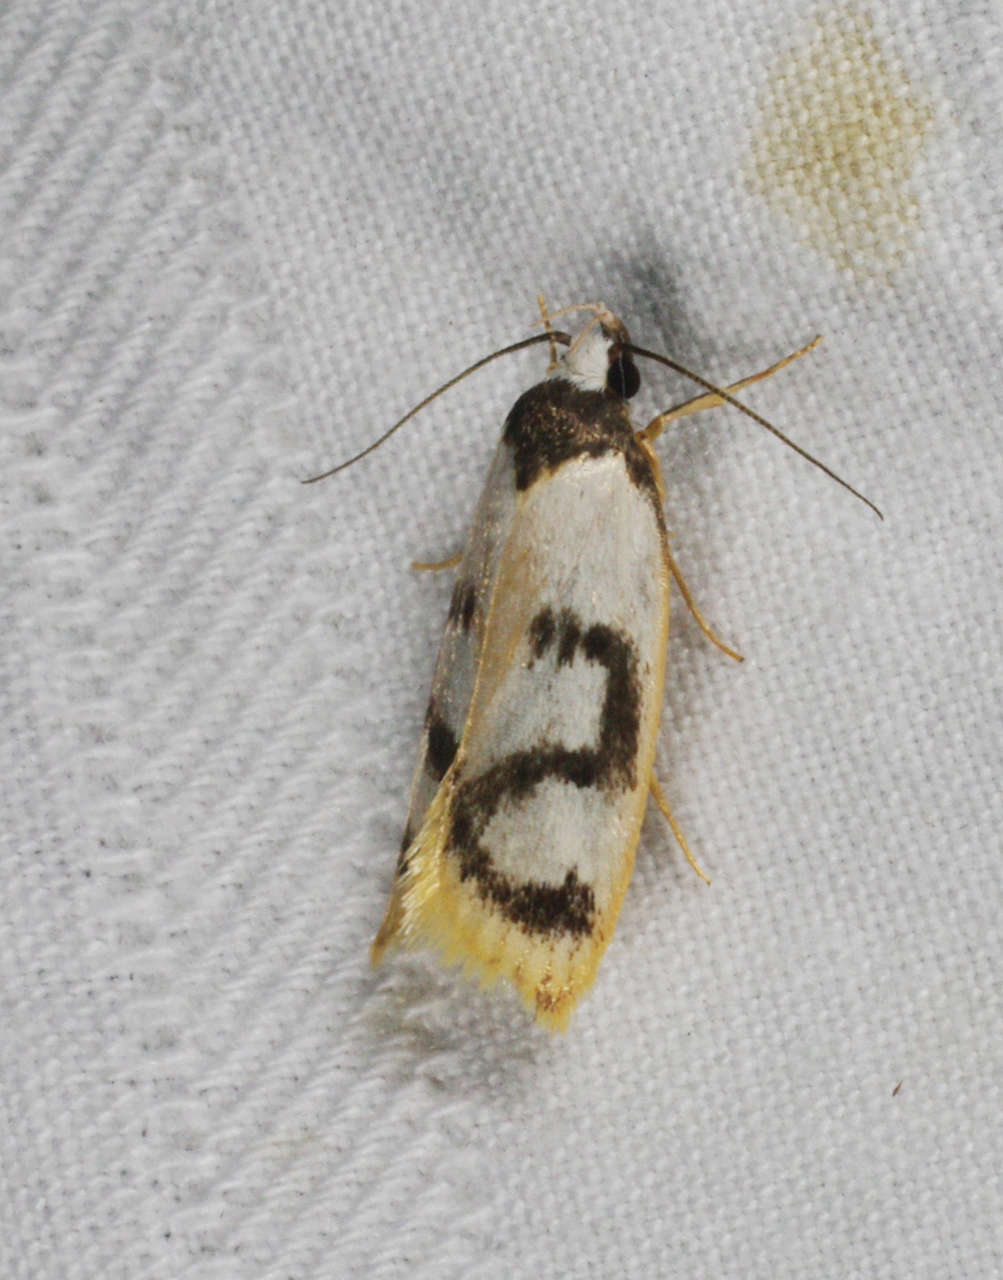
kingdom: Animalia
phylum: Arthropoda
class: Insecta
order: Lepidoptera
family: Oecophoridae
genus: Eulechria
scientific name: Eulechria sigmophora
